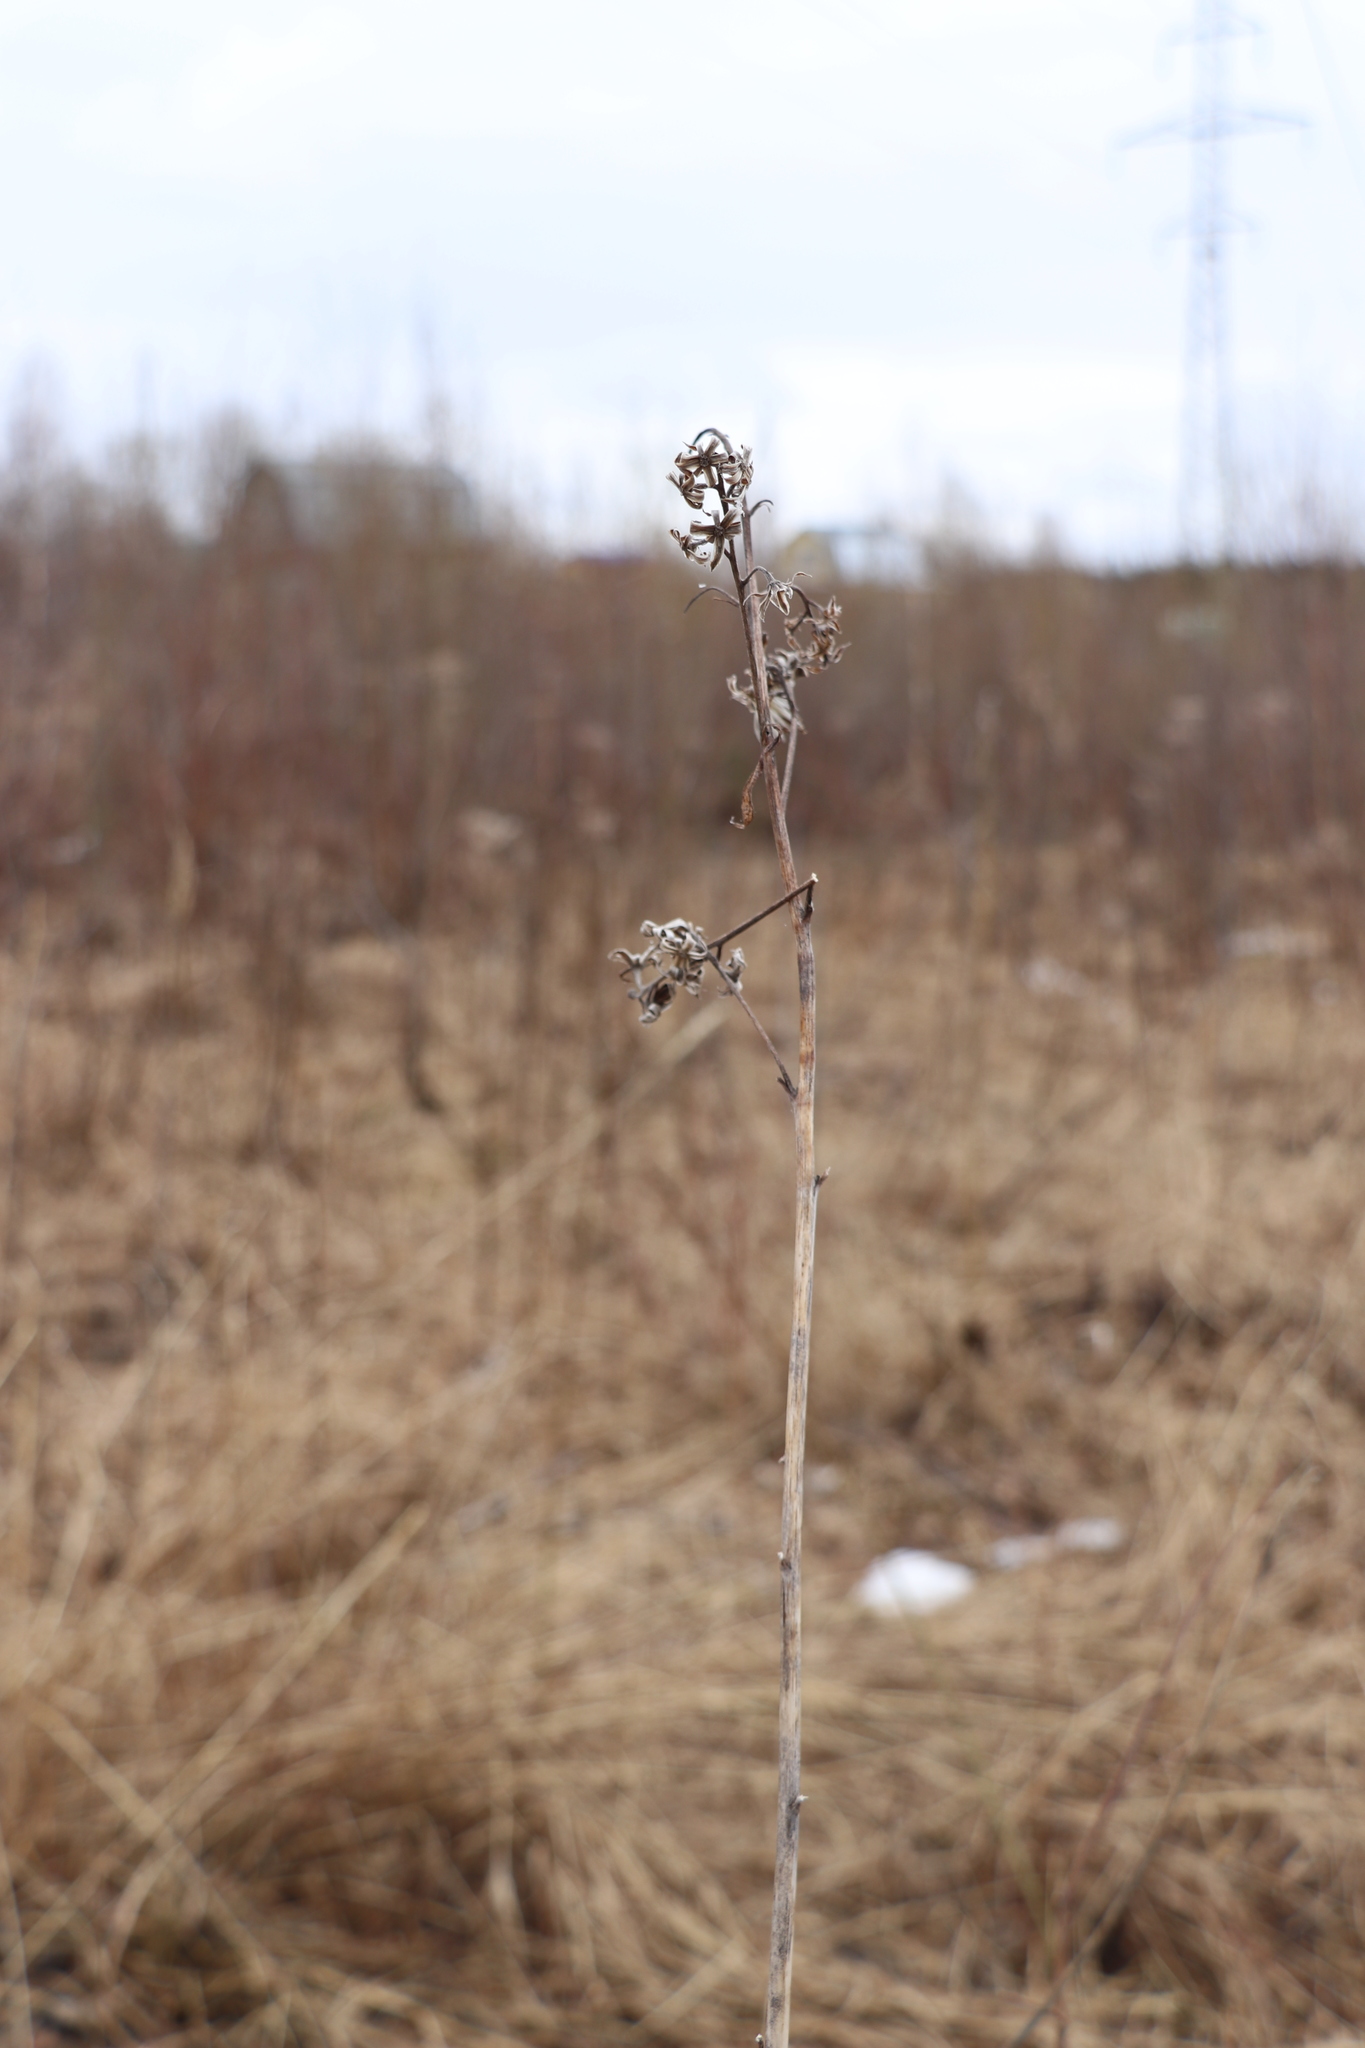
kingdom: Plantae
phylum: Tracheophyta
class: Magnoliopsida
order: Asterales
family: Asteraceae
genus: Parasenecio
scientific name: Parasenecio hastatus
